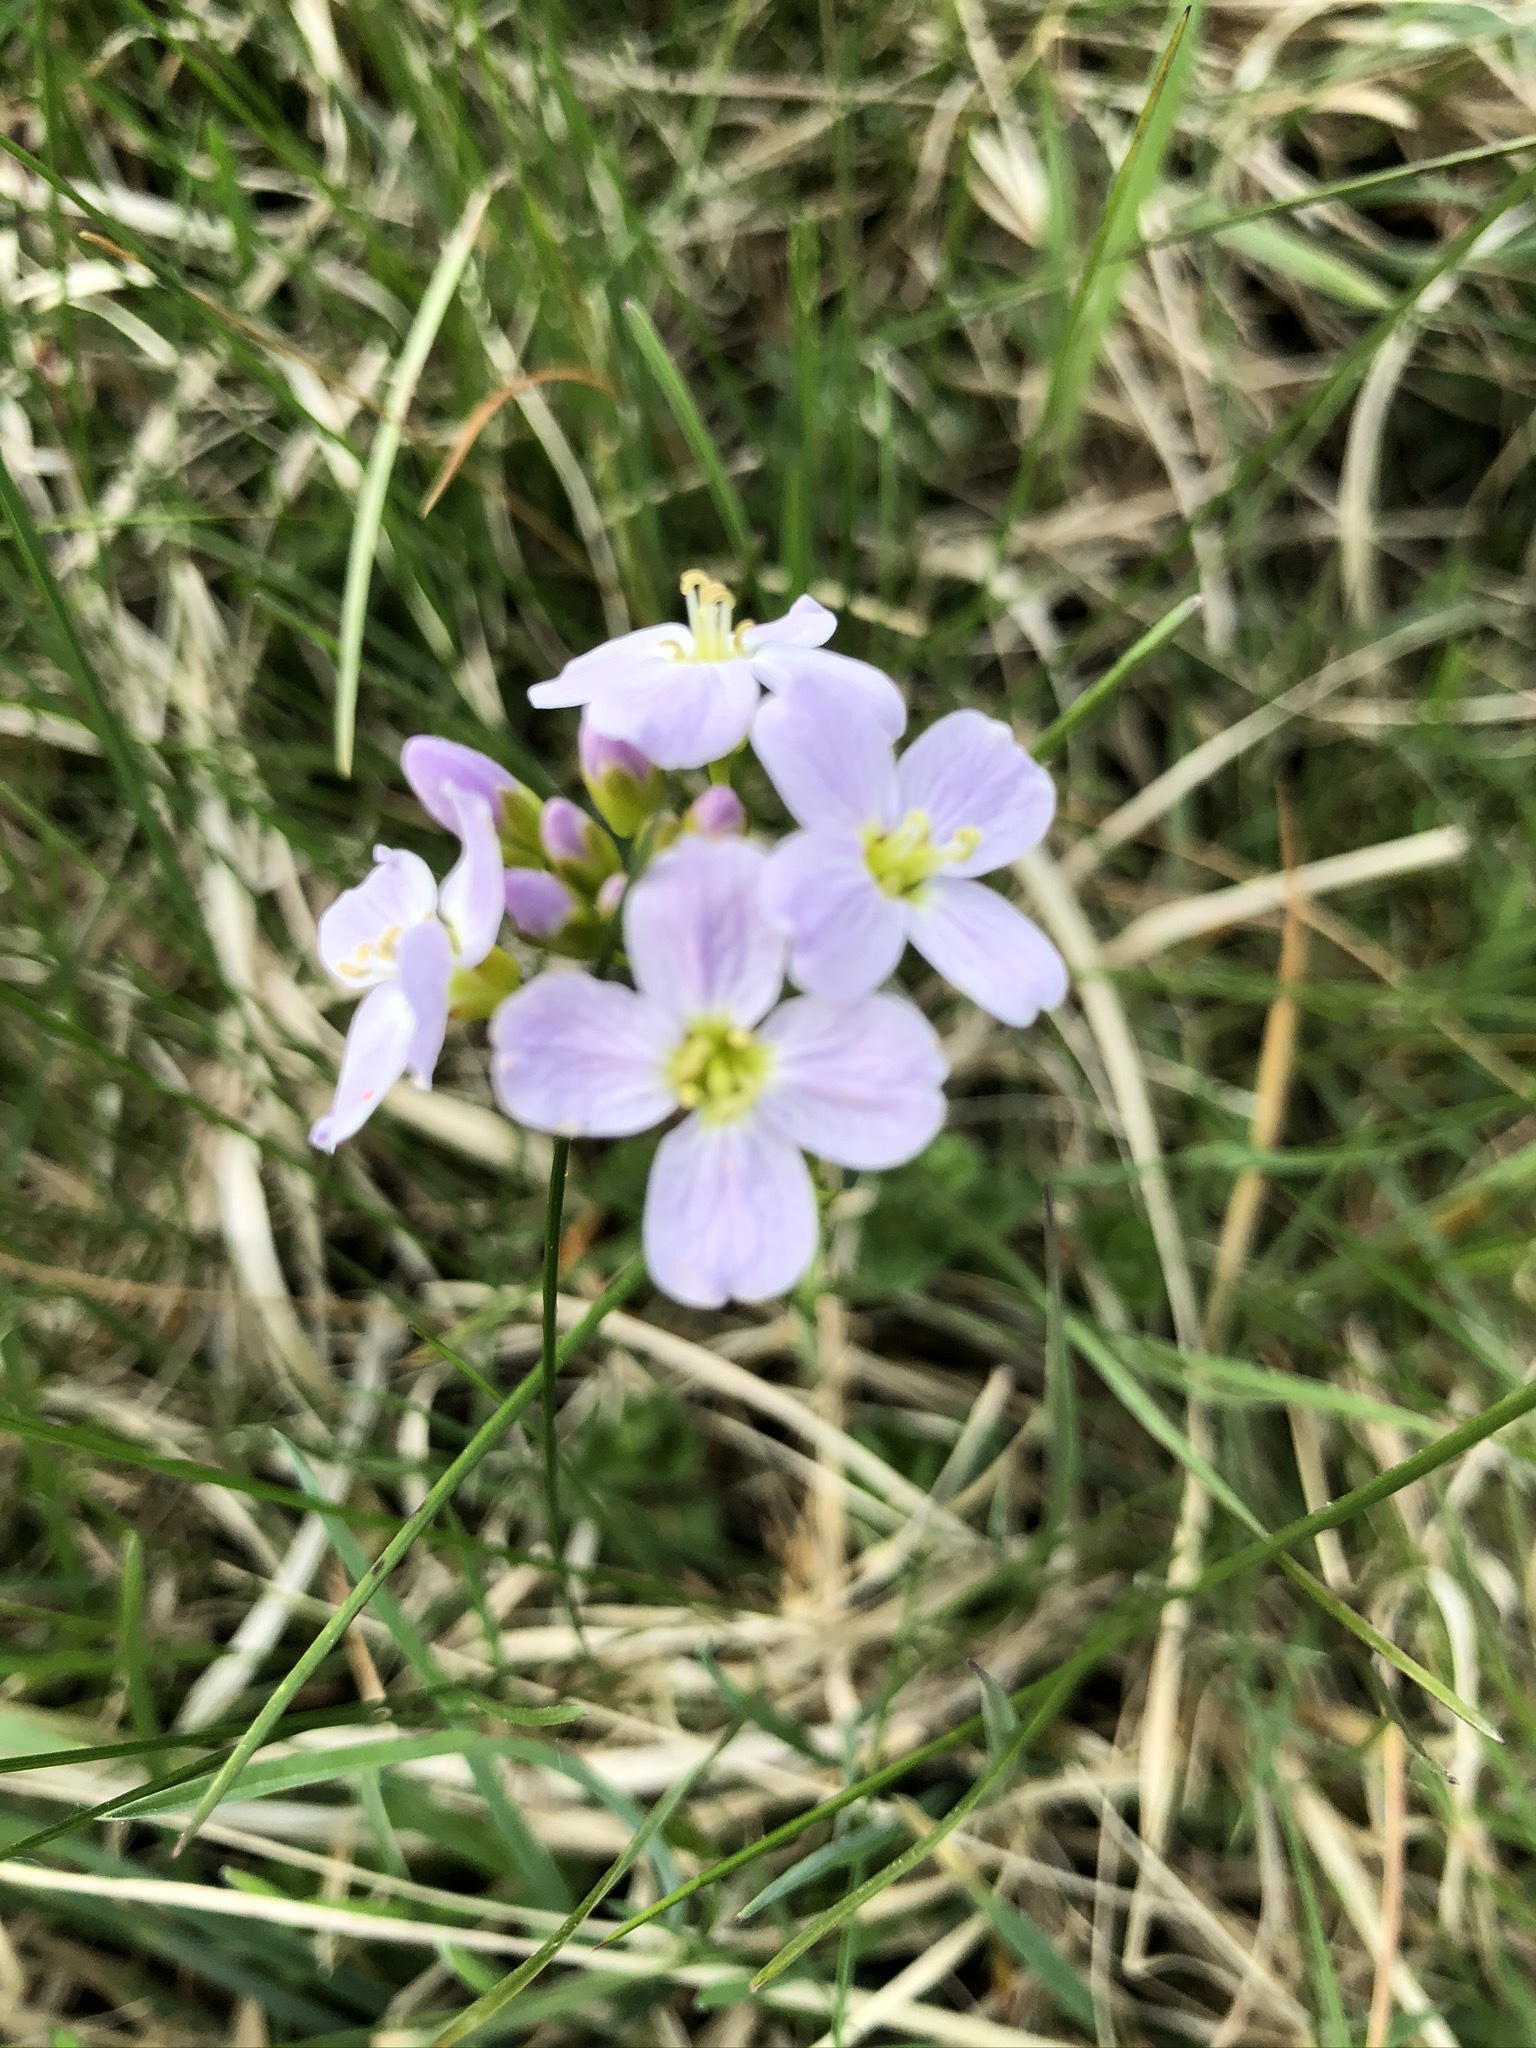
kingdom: Plantae
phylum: Tracheophyta
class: Magnoliopsida
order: Brassicales
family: Brassicaceae
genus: Cardamine
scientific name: Cardamine pratensis
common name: Cuckoo flower
